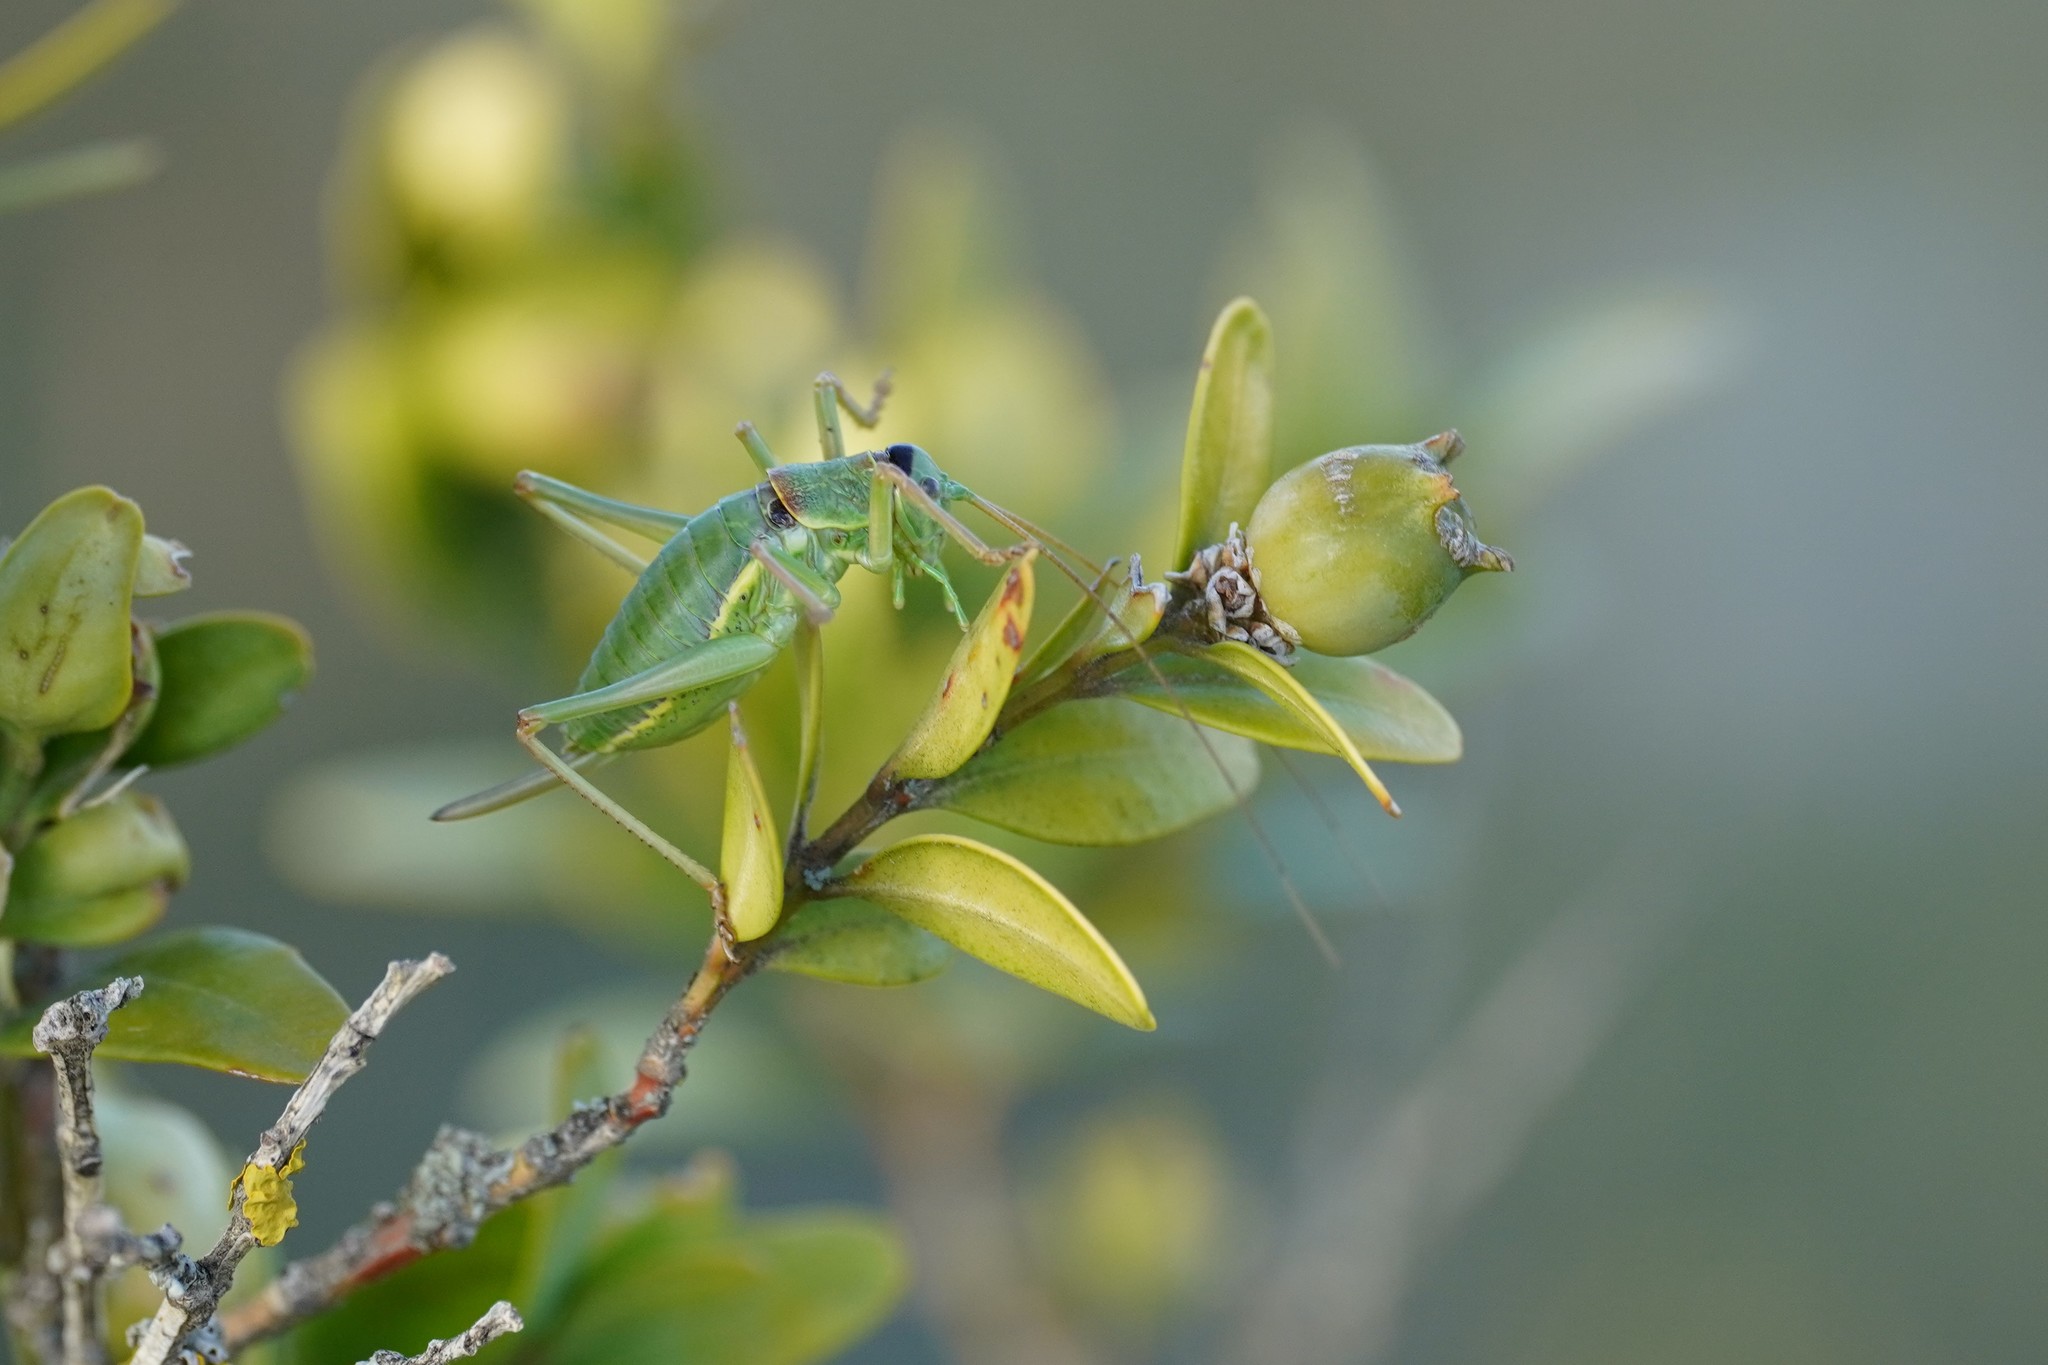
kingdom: Animalia
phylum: Arthropoda
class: Insecta
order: Orthoptera
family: Tettigoniidae
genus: Ephippiger
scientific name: Ephippiger diurnus
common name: Western saddle bush-cricket
